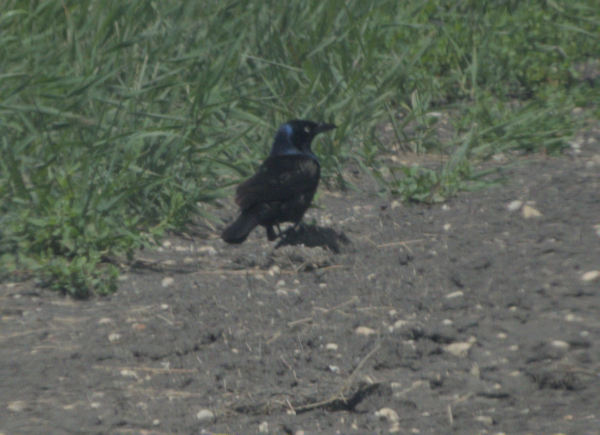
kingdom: Animalia
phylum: Chordata
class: Aves
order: Passeriformes
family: Icteridae
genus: Quiscalus
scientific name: Quiscalus quiscula
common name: Common grackle
